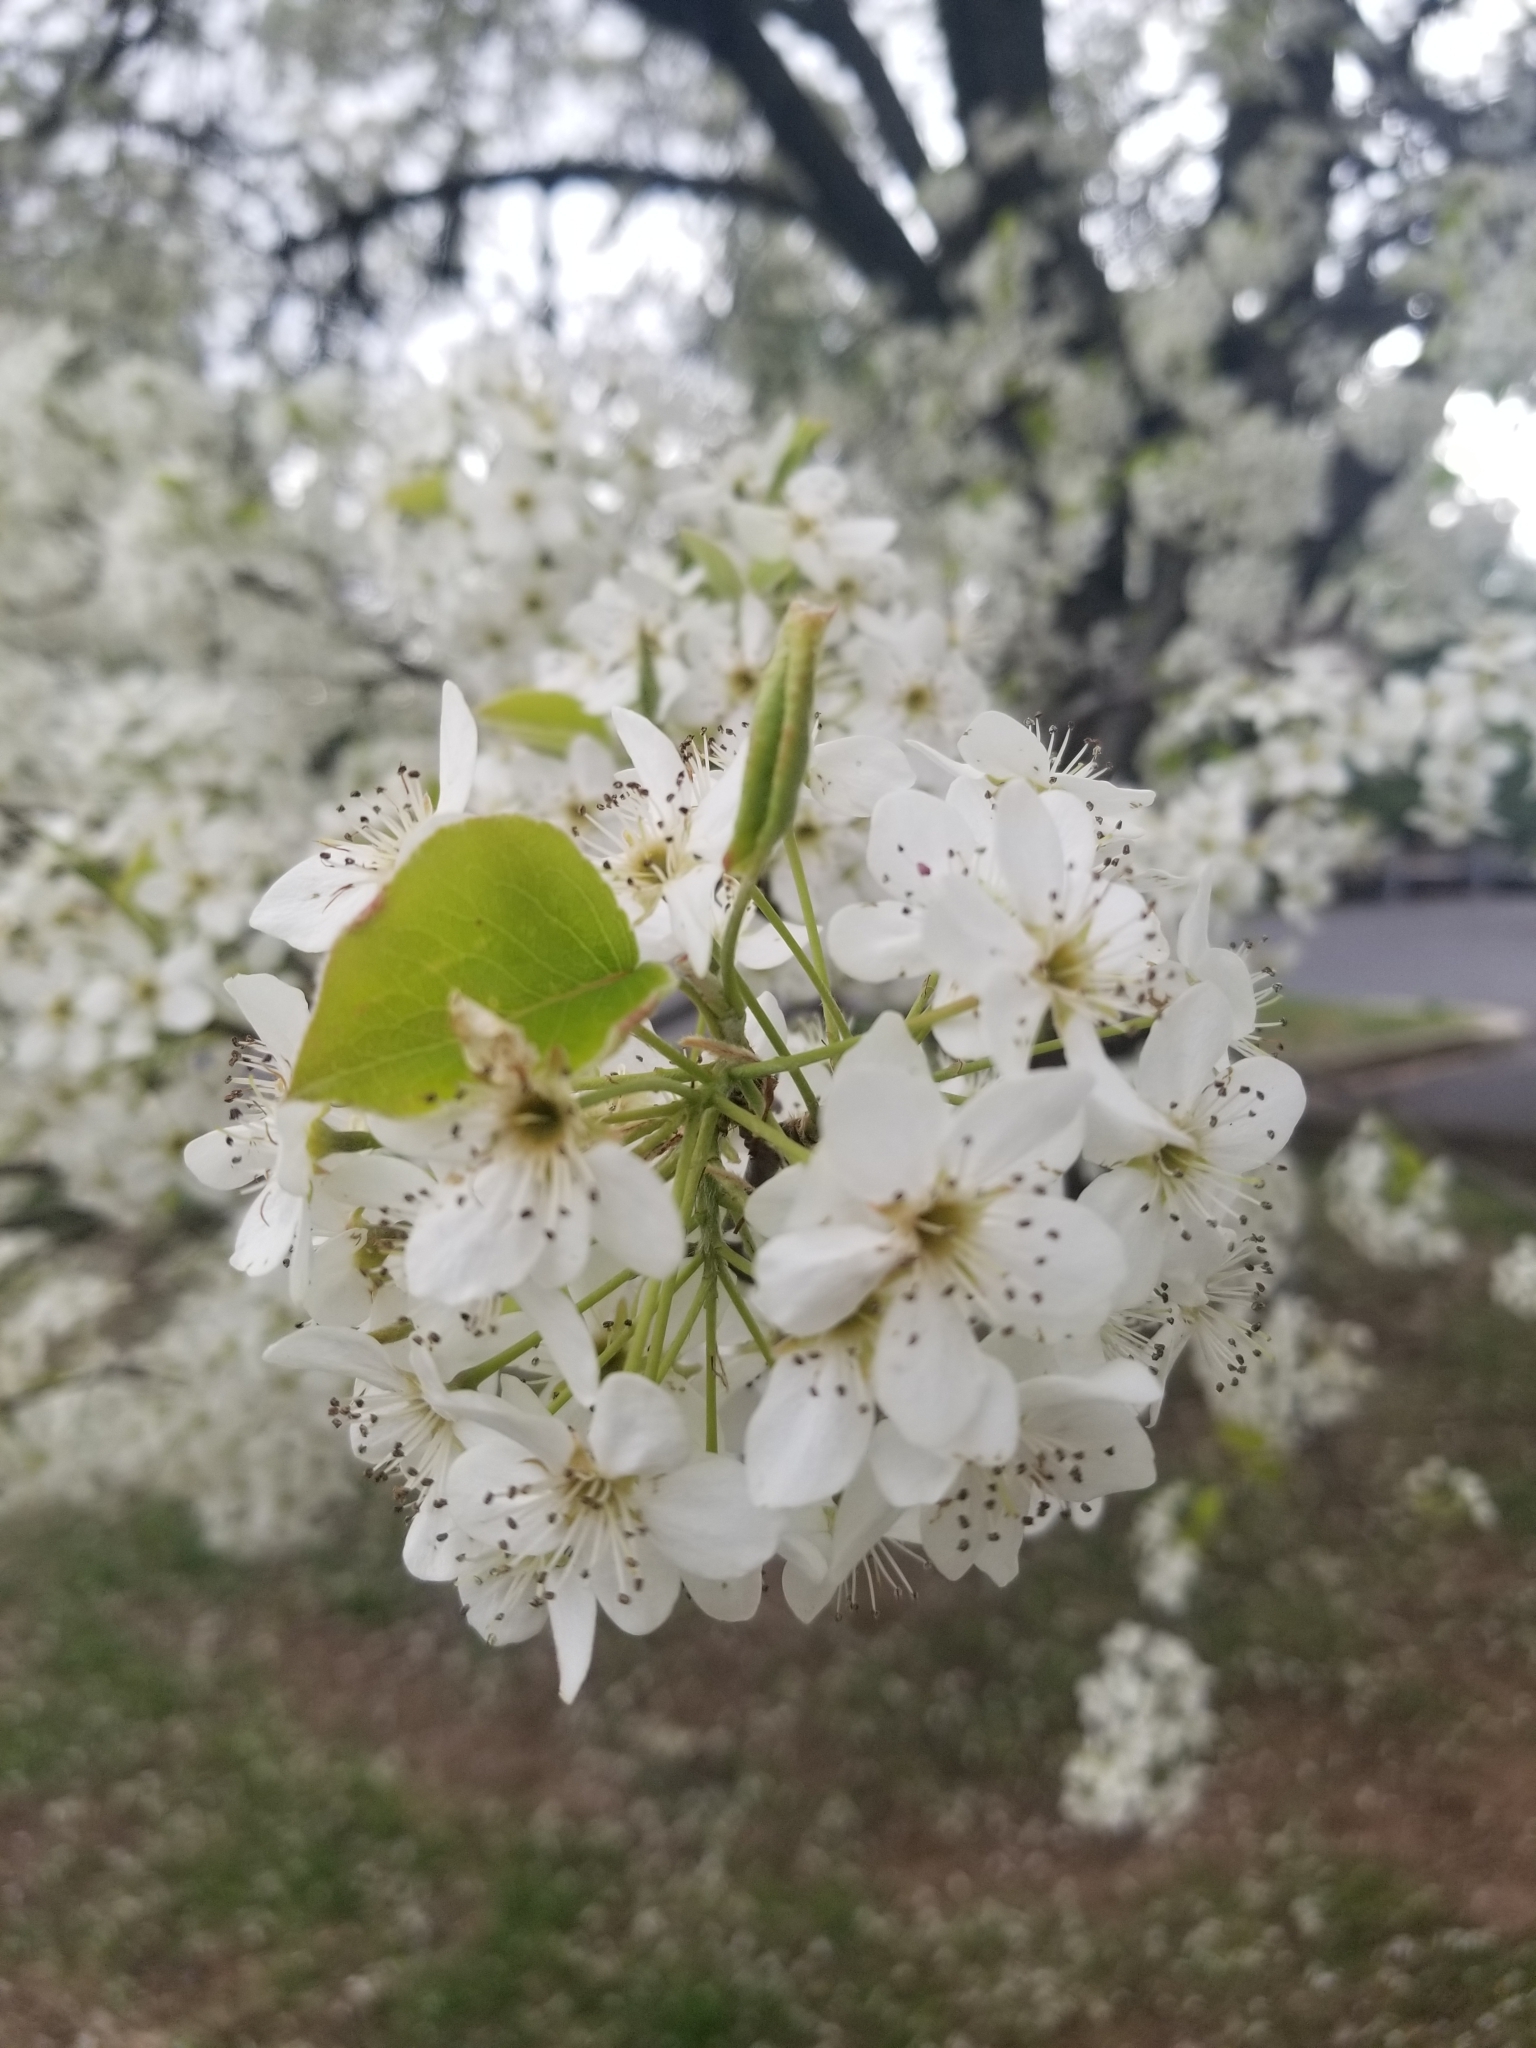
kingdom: Plantae
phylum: Tracheophyta
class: Magnoliopsida
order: Rosales
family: Rosaceae
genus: Pyrus
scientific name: Pyrus calleryana
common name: Callery pear
